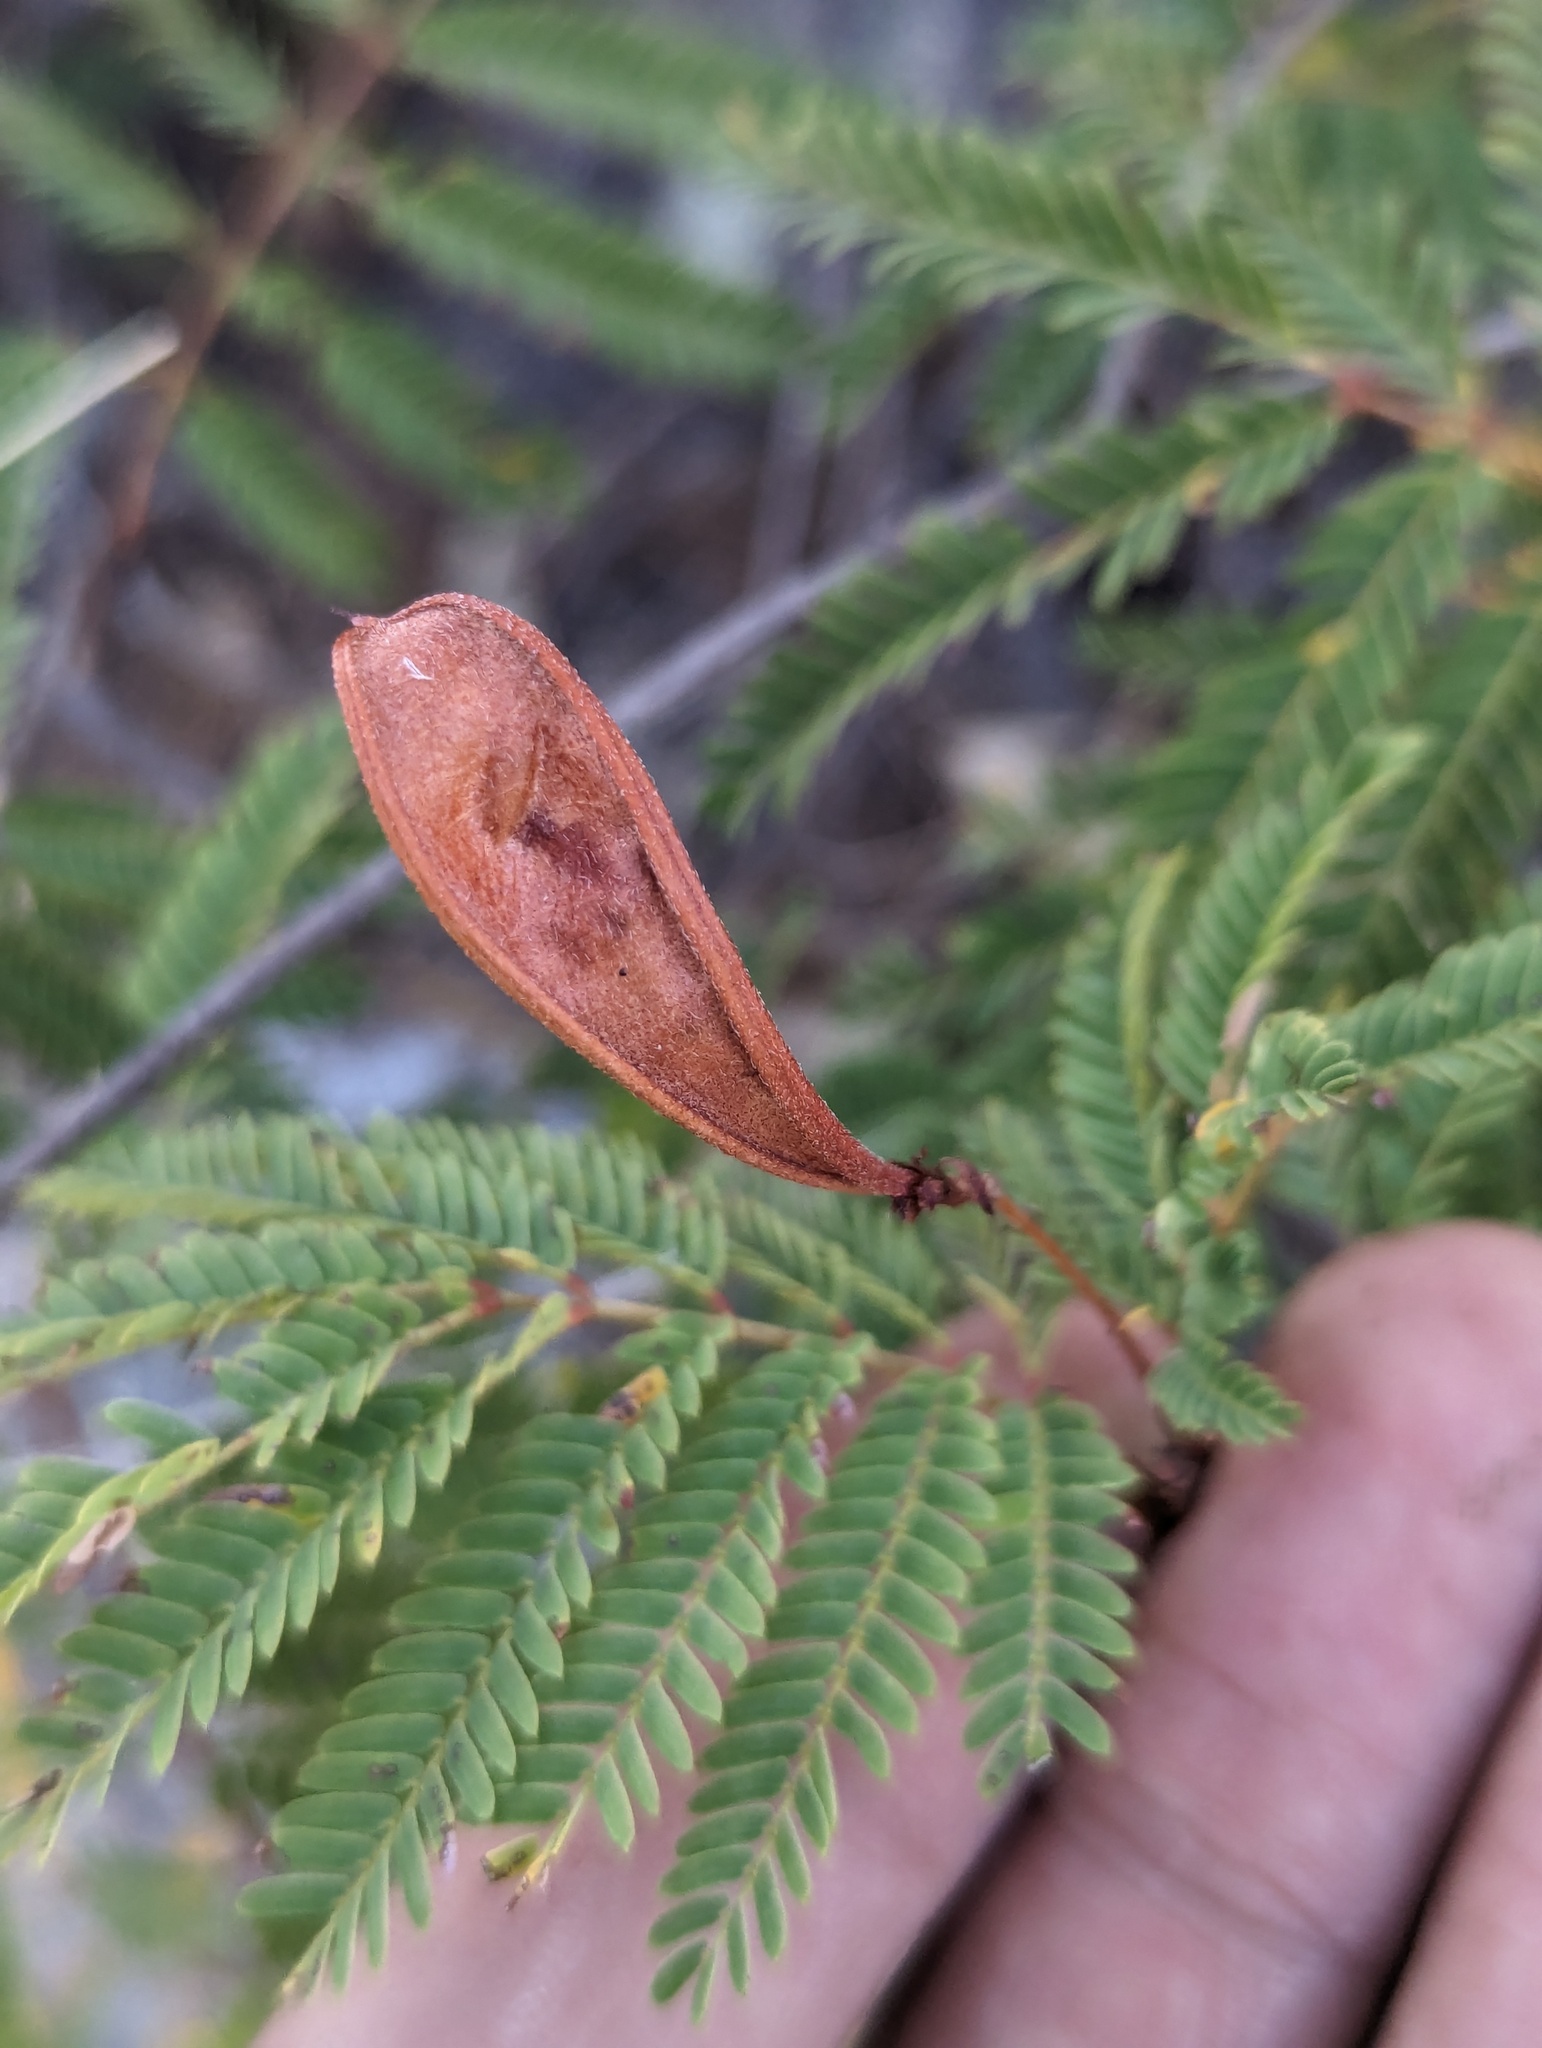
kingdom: Plantae
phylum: Tracheophyta
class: Magnoliopsida
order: Fabales
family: Fabaceae
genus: Calliandra
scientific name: Calliandra peninsularis
